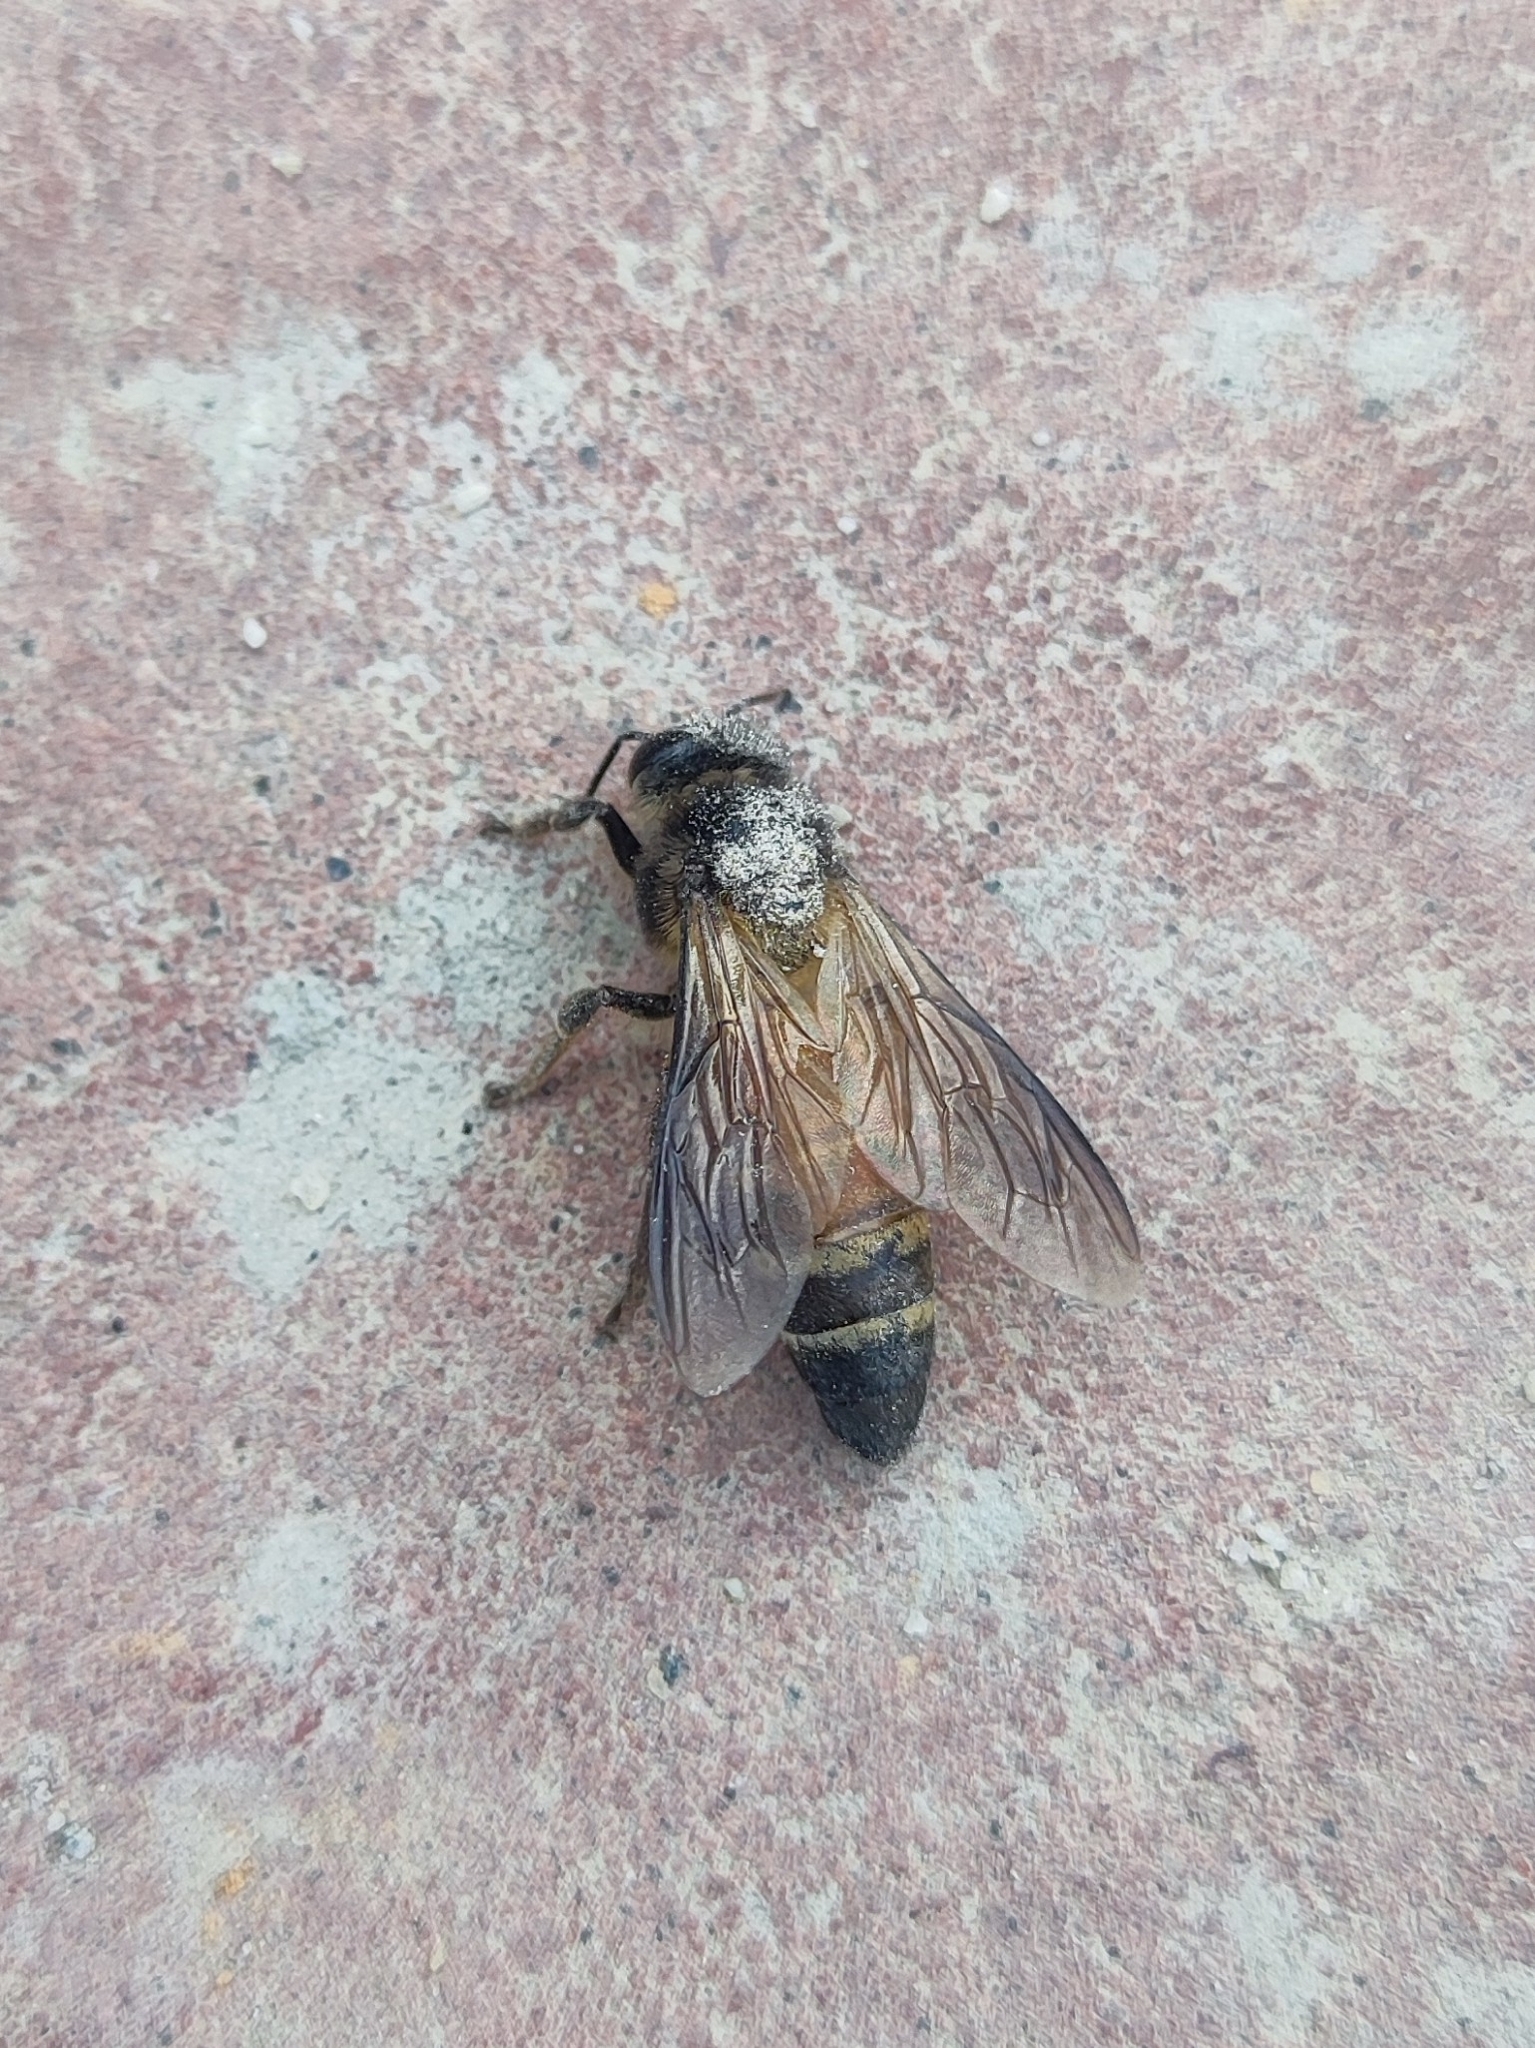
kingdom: Animalia
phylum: Arthropoda
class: Insecta
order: Hymenoptera
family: Apidae
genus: Apis
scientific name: Apis dorsata
